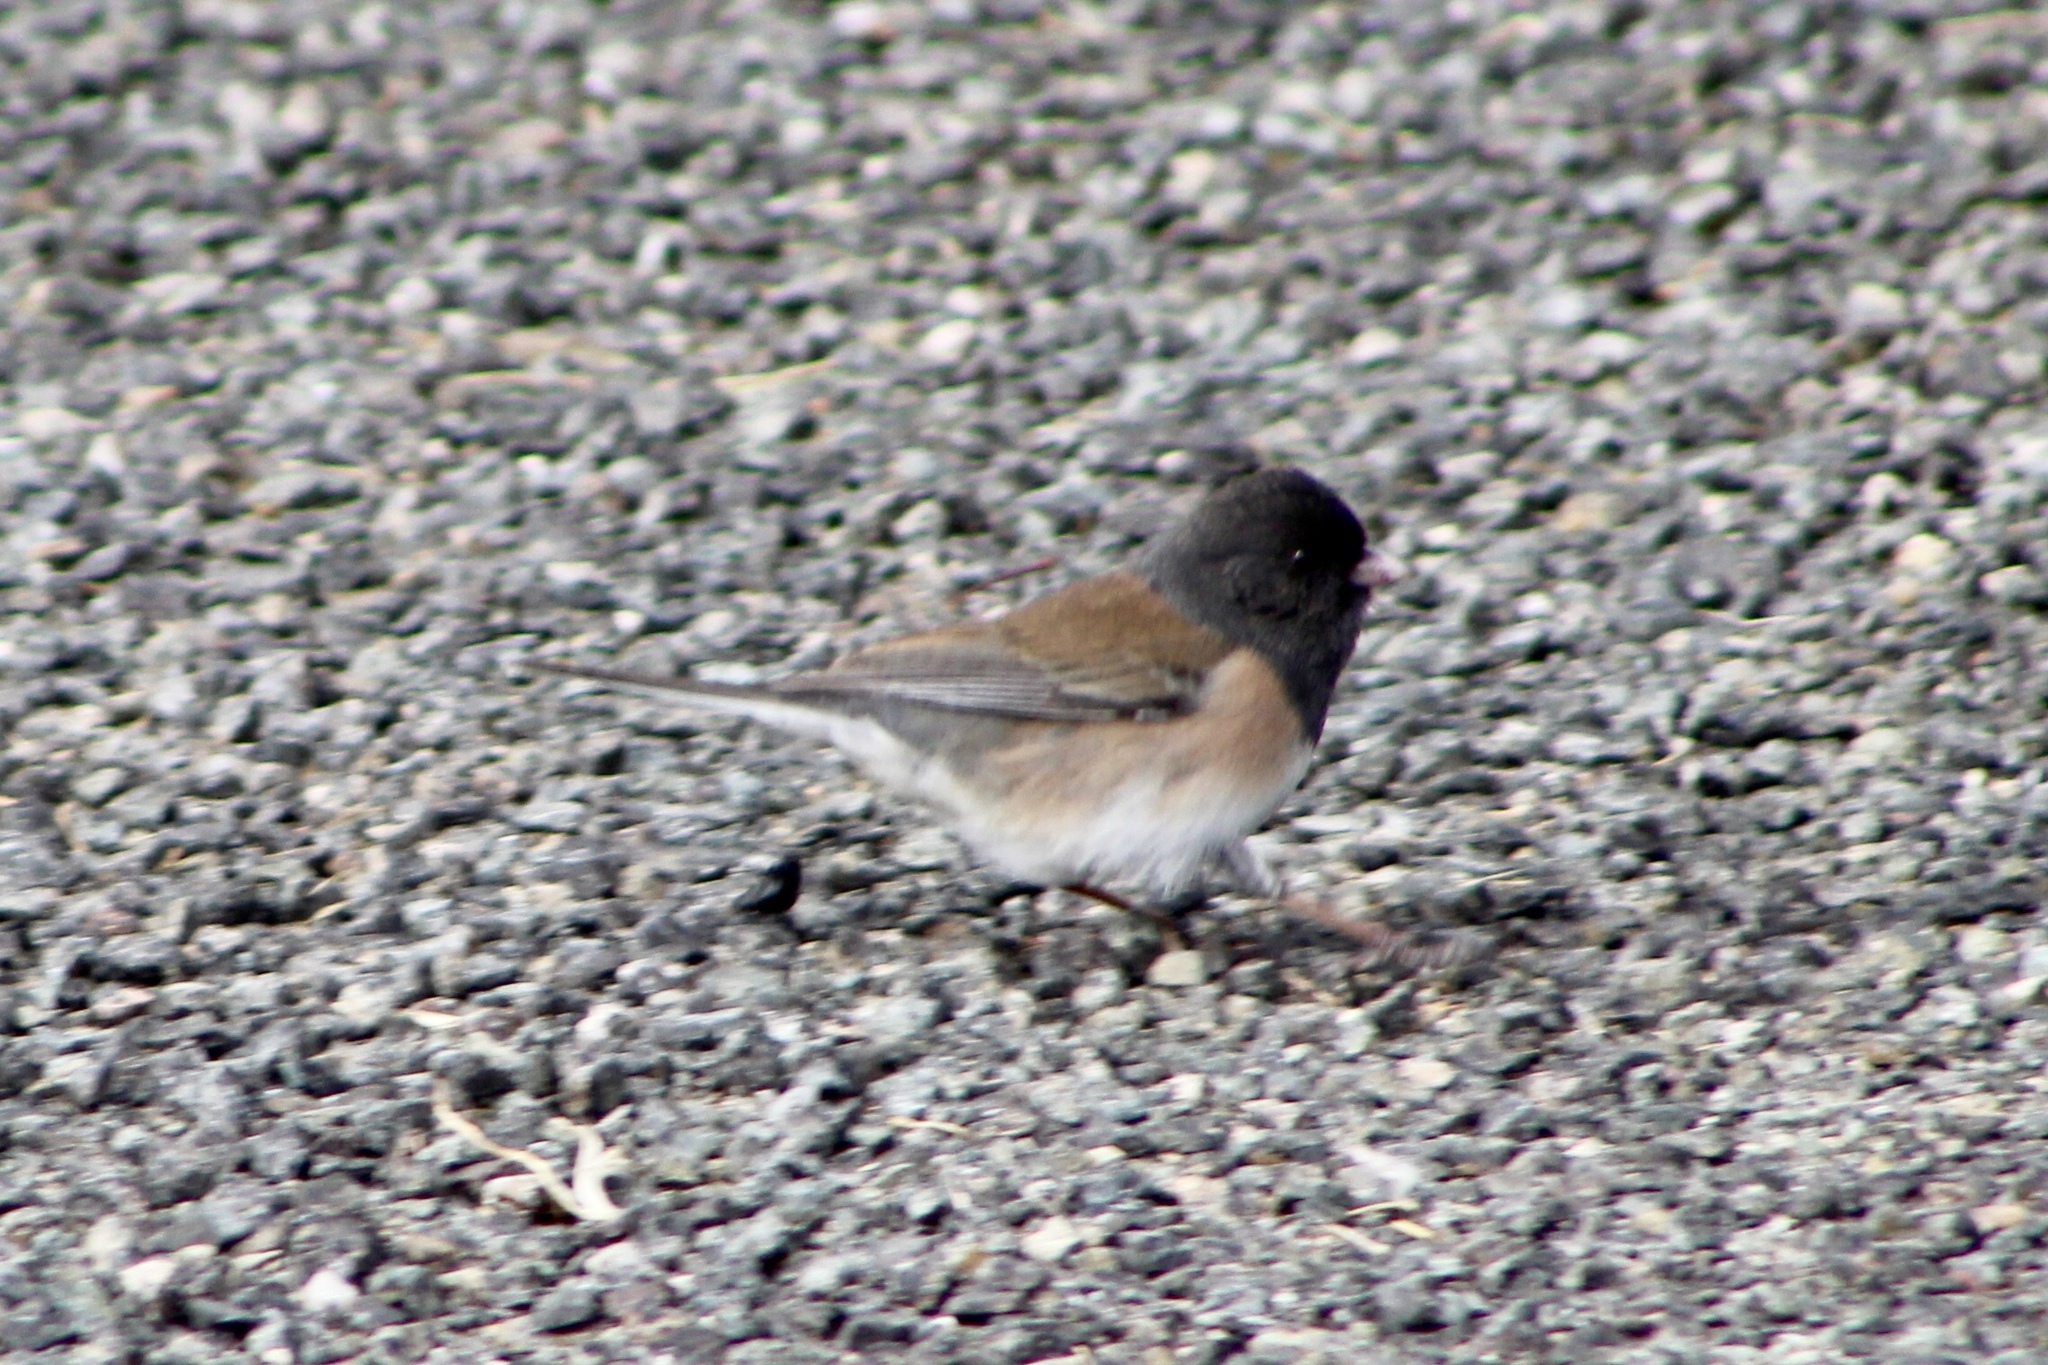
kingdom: Animalia
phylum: Chordata
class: Aves
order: Passeriformes
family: Passerellidae
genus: Junco
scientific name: Junco hyemalis
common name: Dark-eyed junco
